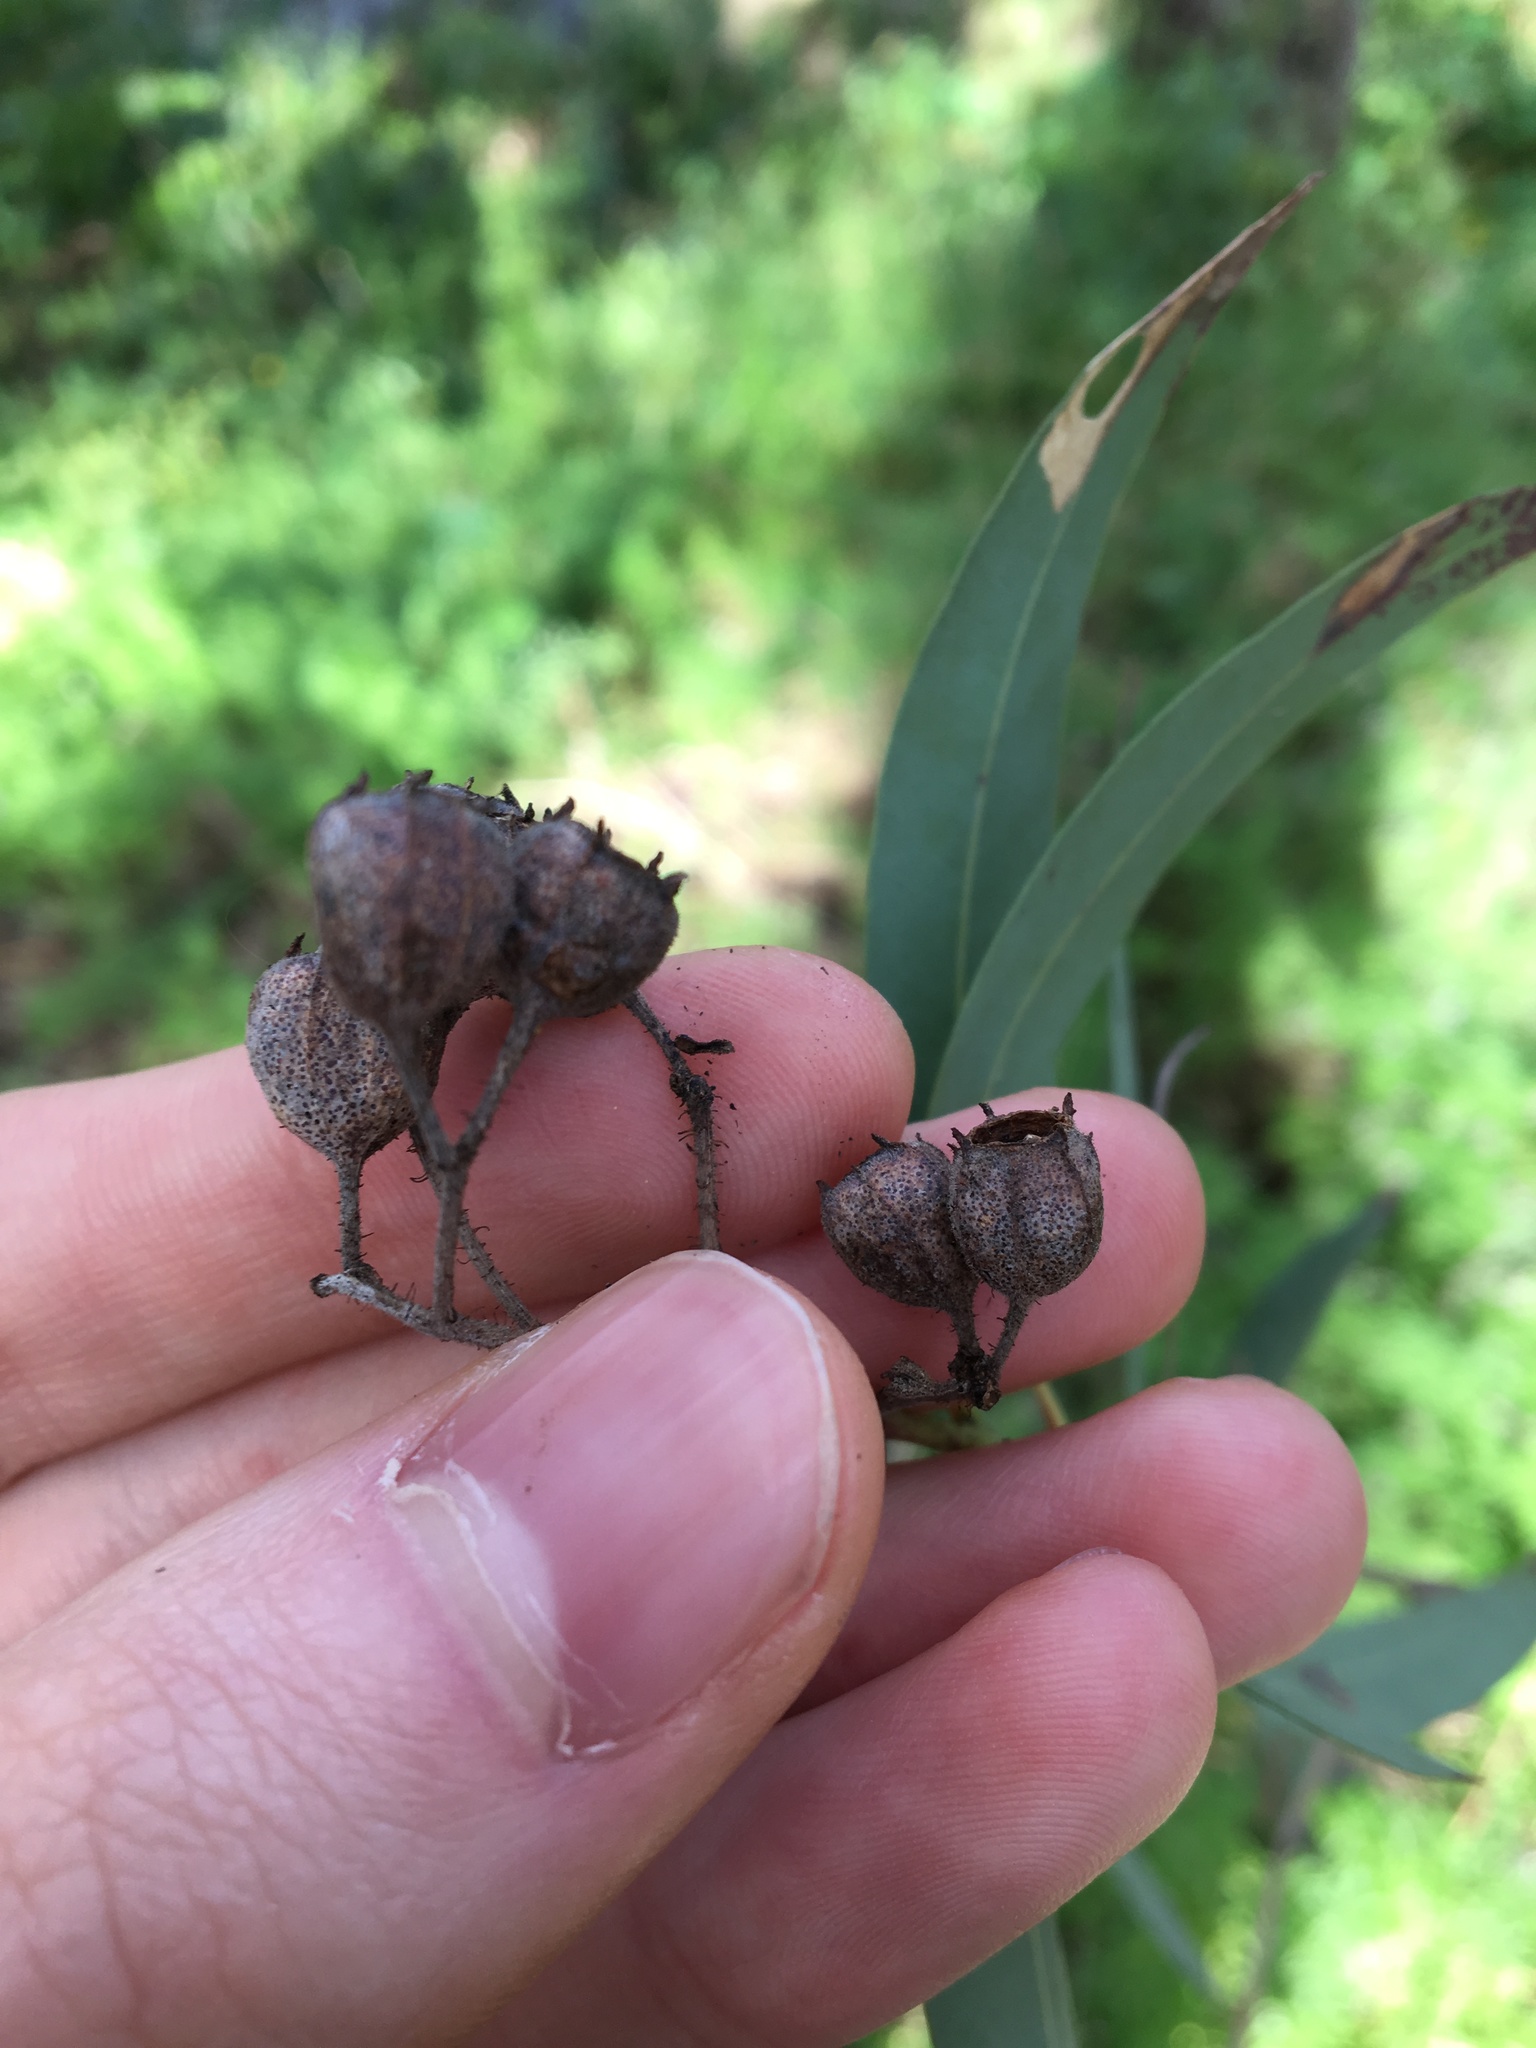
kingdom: Plantae
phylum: Tracheophyta
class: Magnoliopsida
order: Myrtales
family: Myrtaceae
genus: Angophora
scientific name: Angophora floribunda
